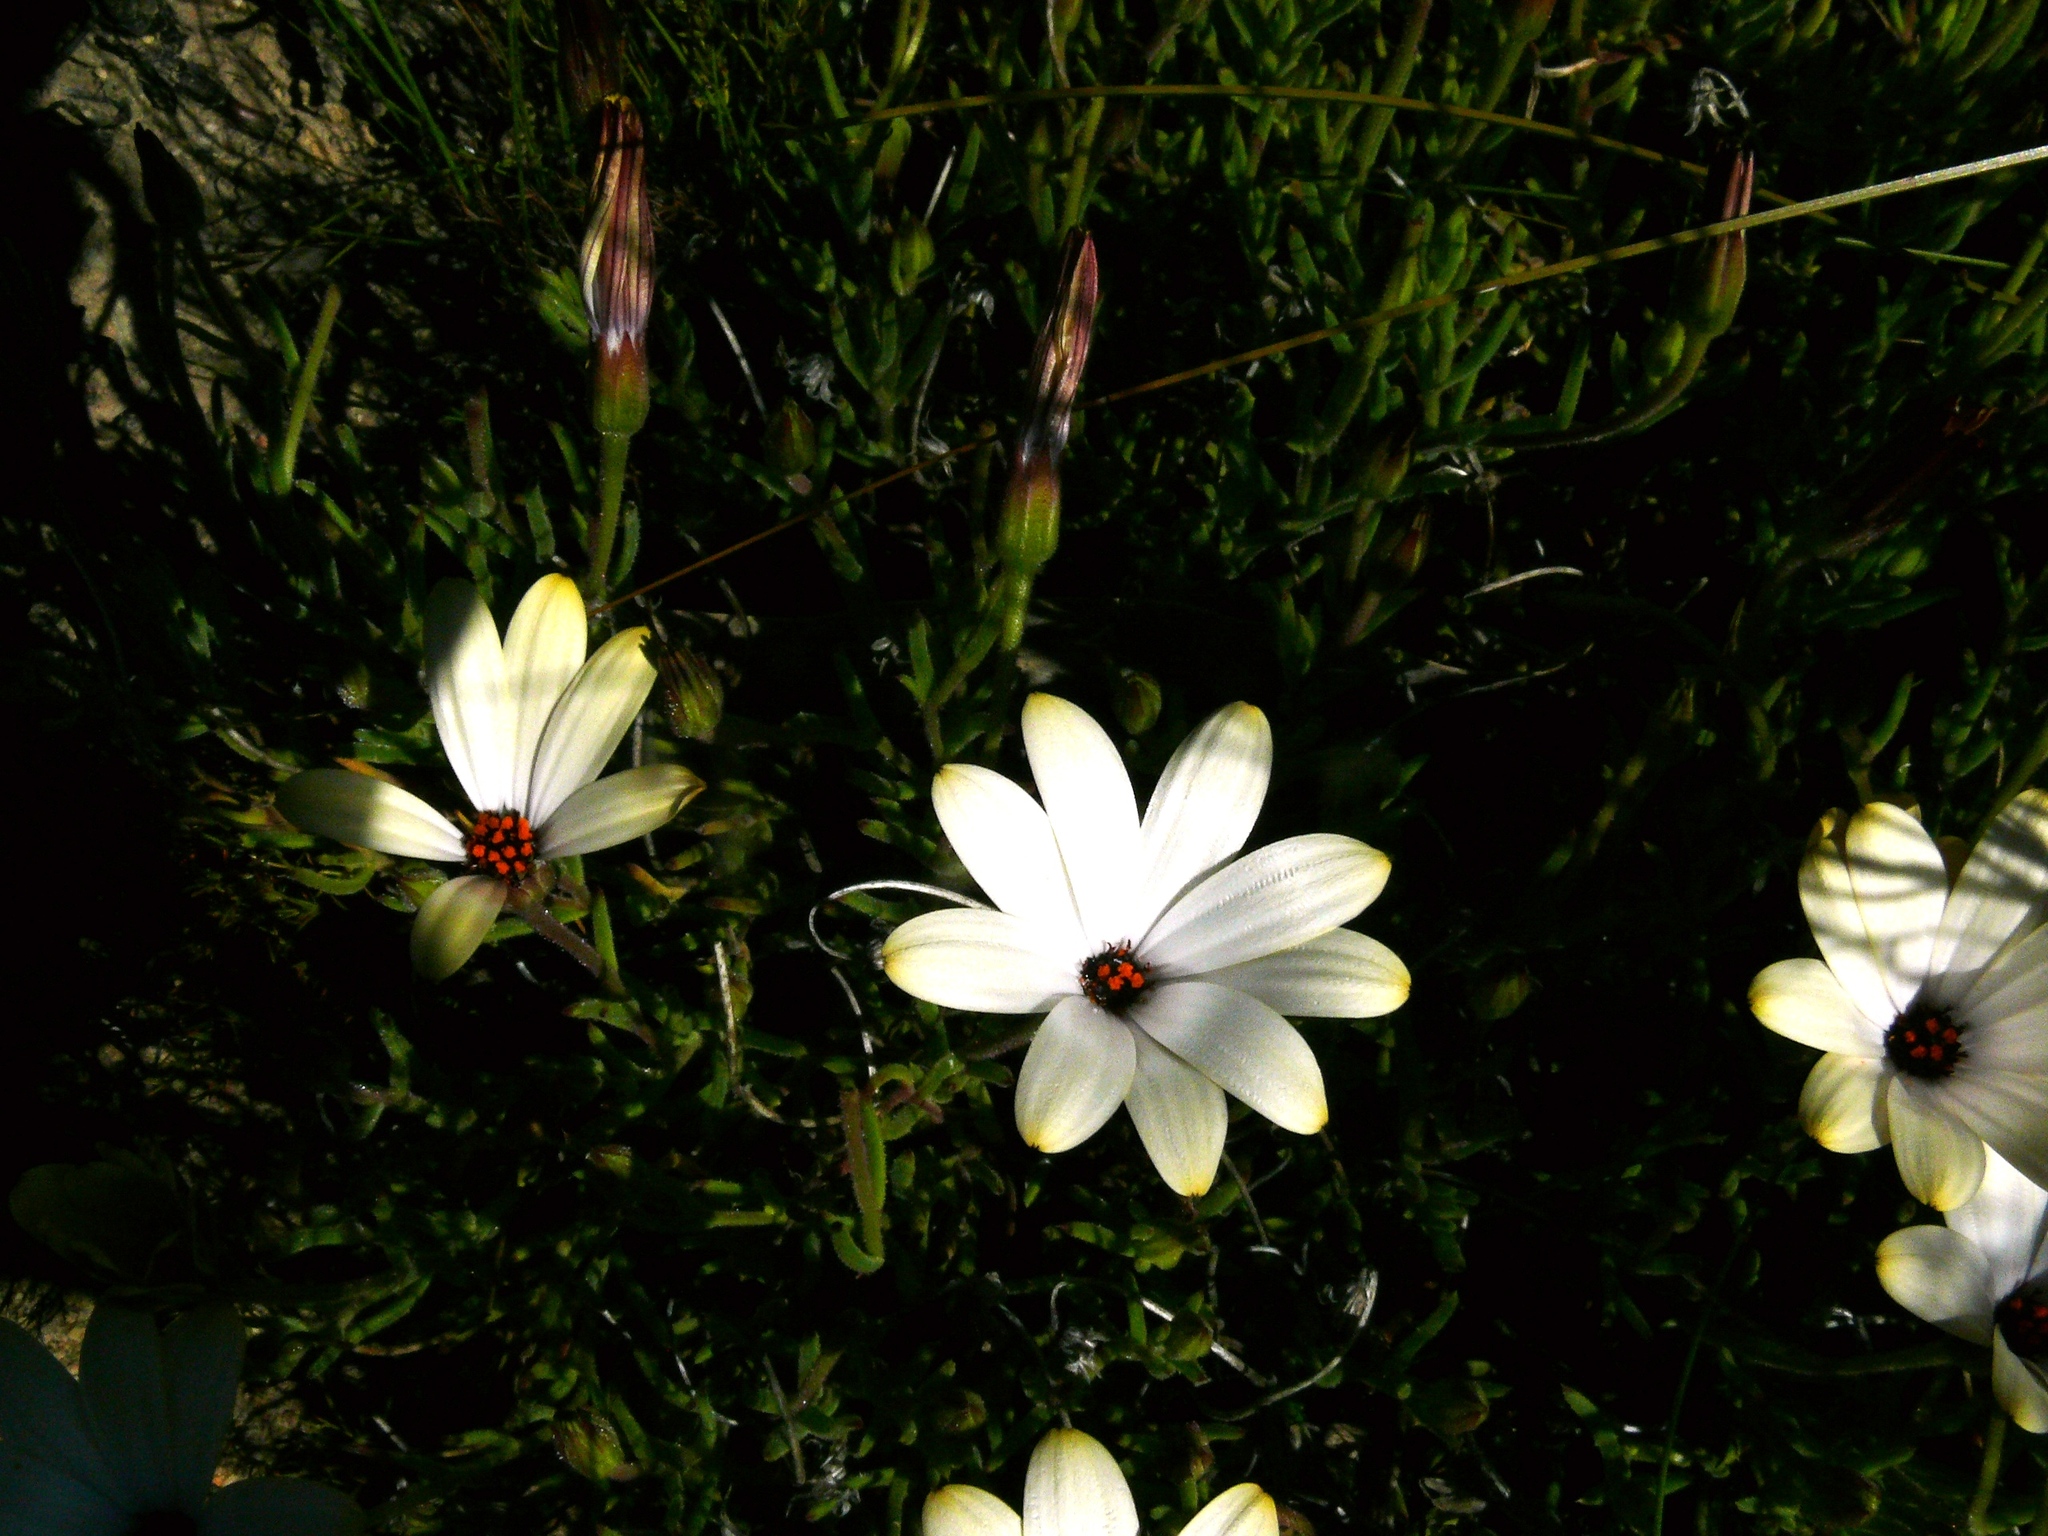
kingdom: Plantae
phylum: Tracheophyta
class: Magnoliopsida
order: Asterales
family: Asteraceae
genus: Dimorphotheca
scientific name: Dimorphotheca acutifolia
